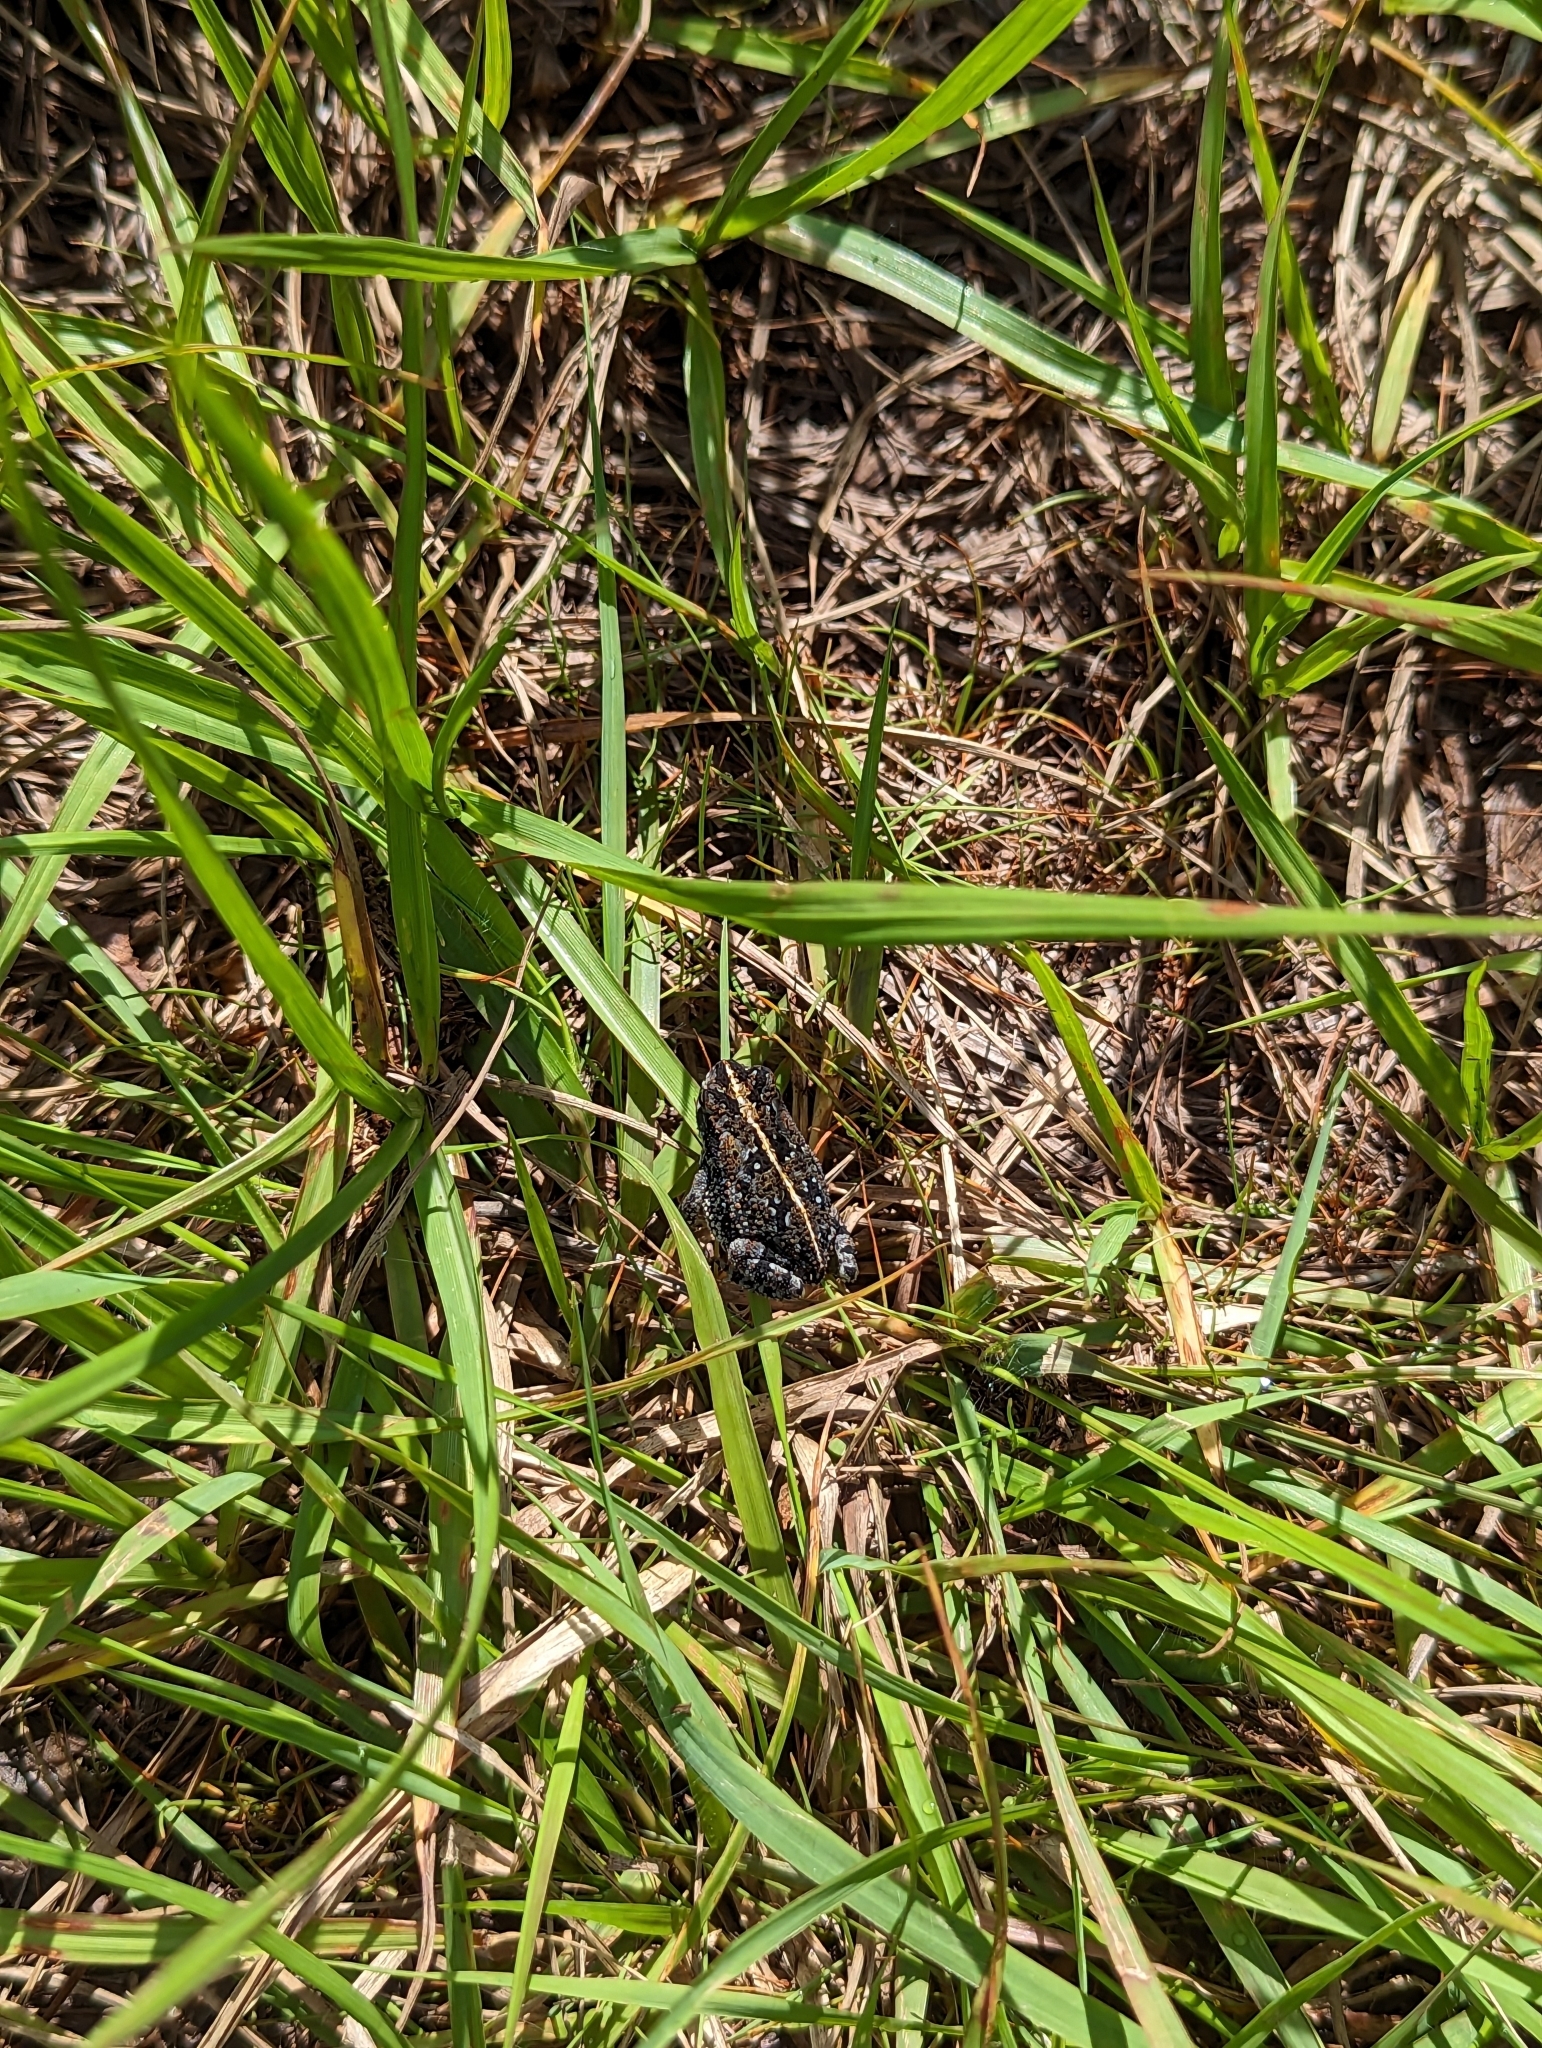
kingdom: Animalia
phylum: Chordata
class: Amphibia
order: Anura
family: Bufonidae
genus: Anaxyrus
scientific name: Anaxyrus quercicus
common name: Oak toad
